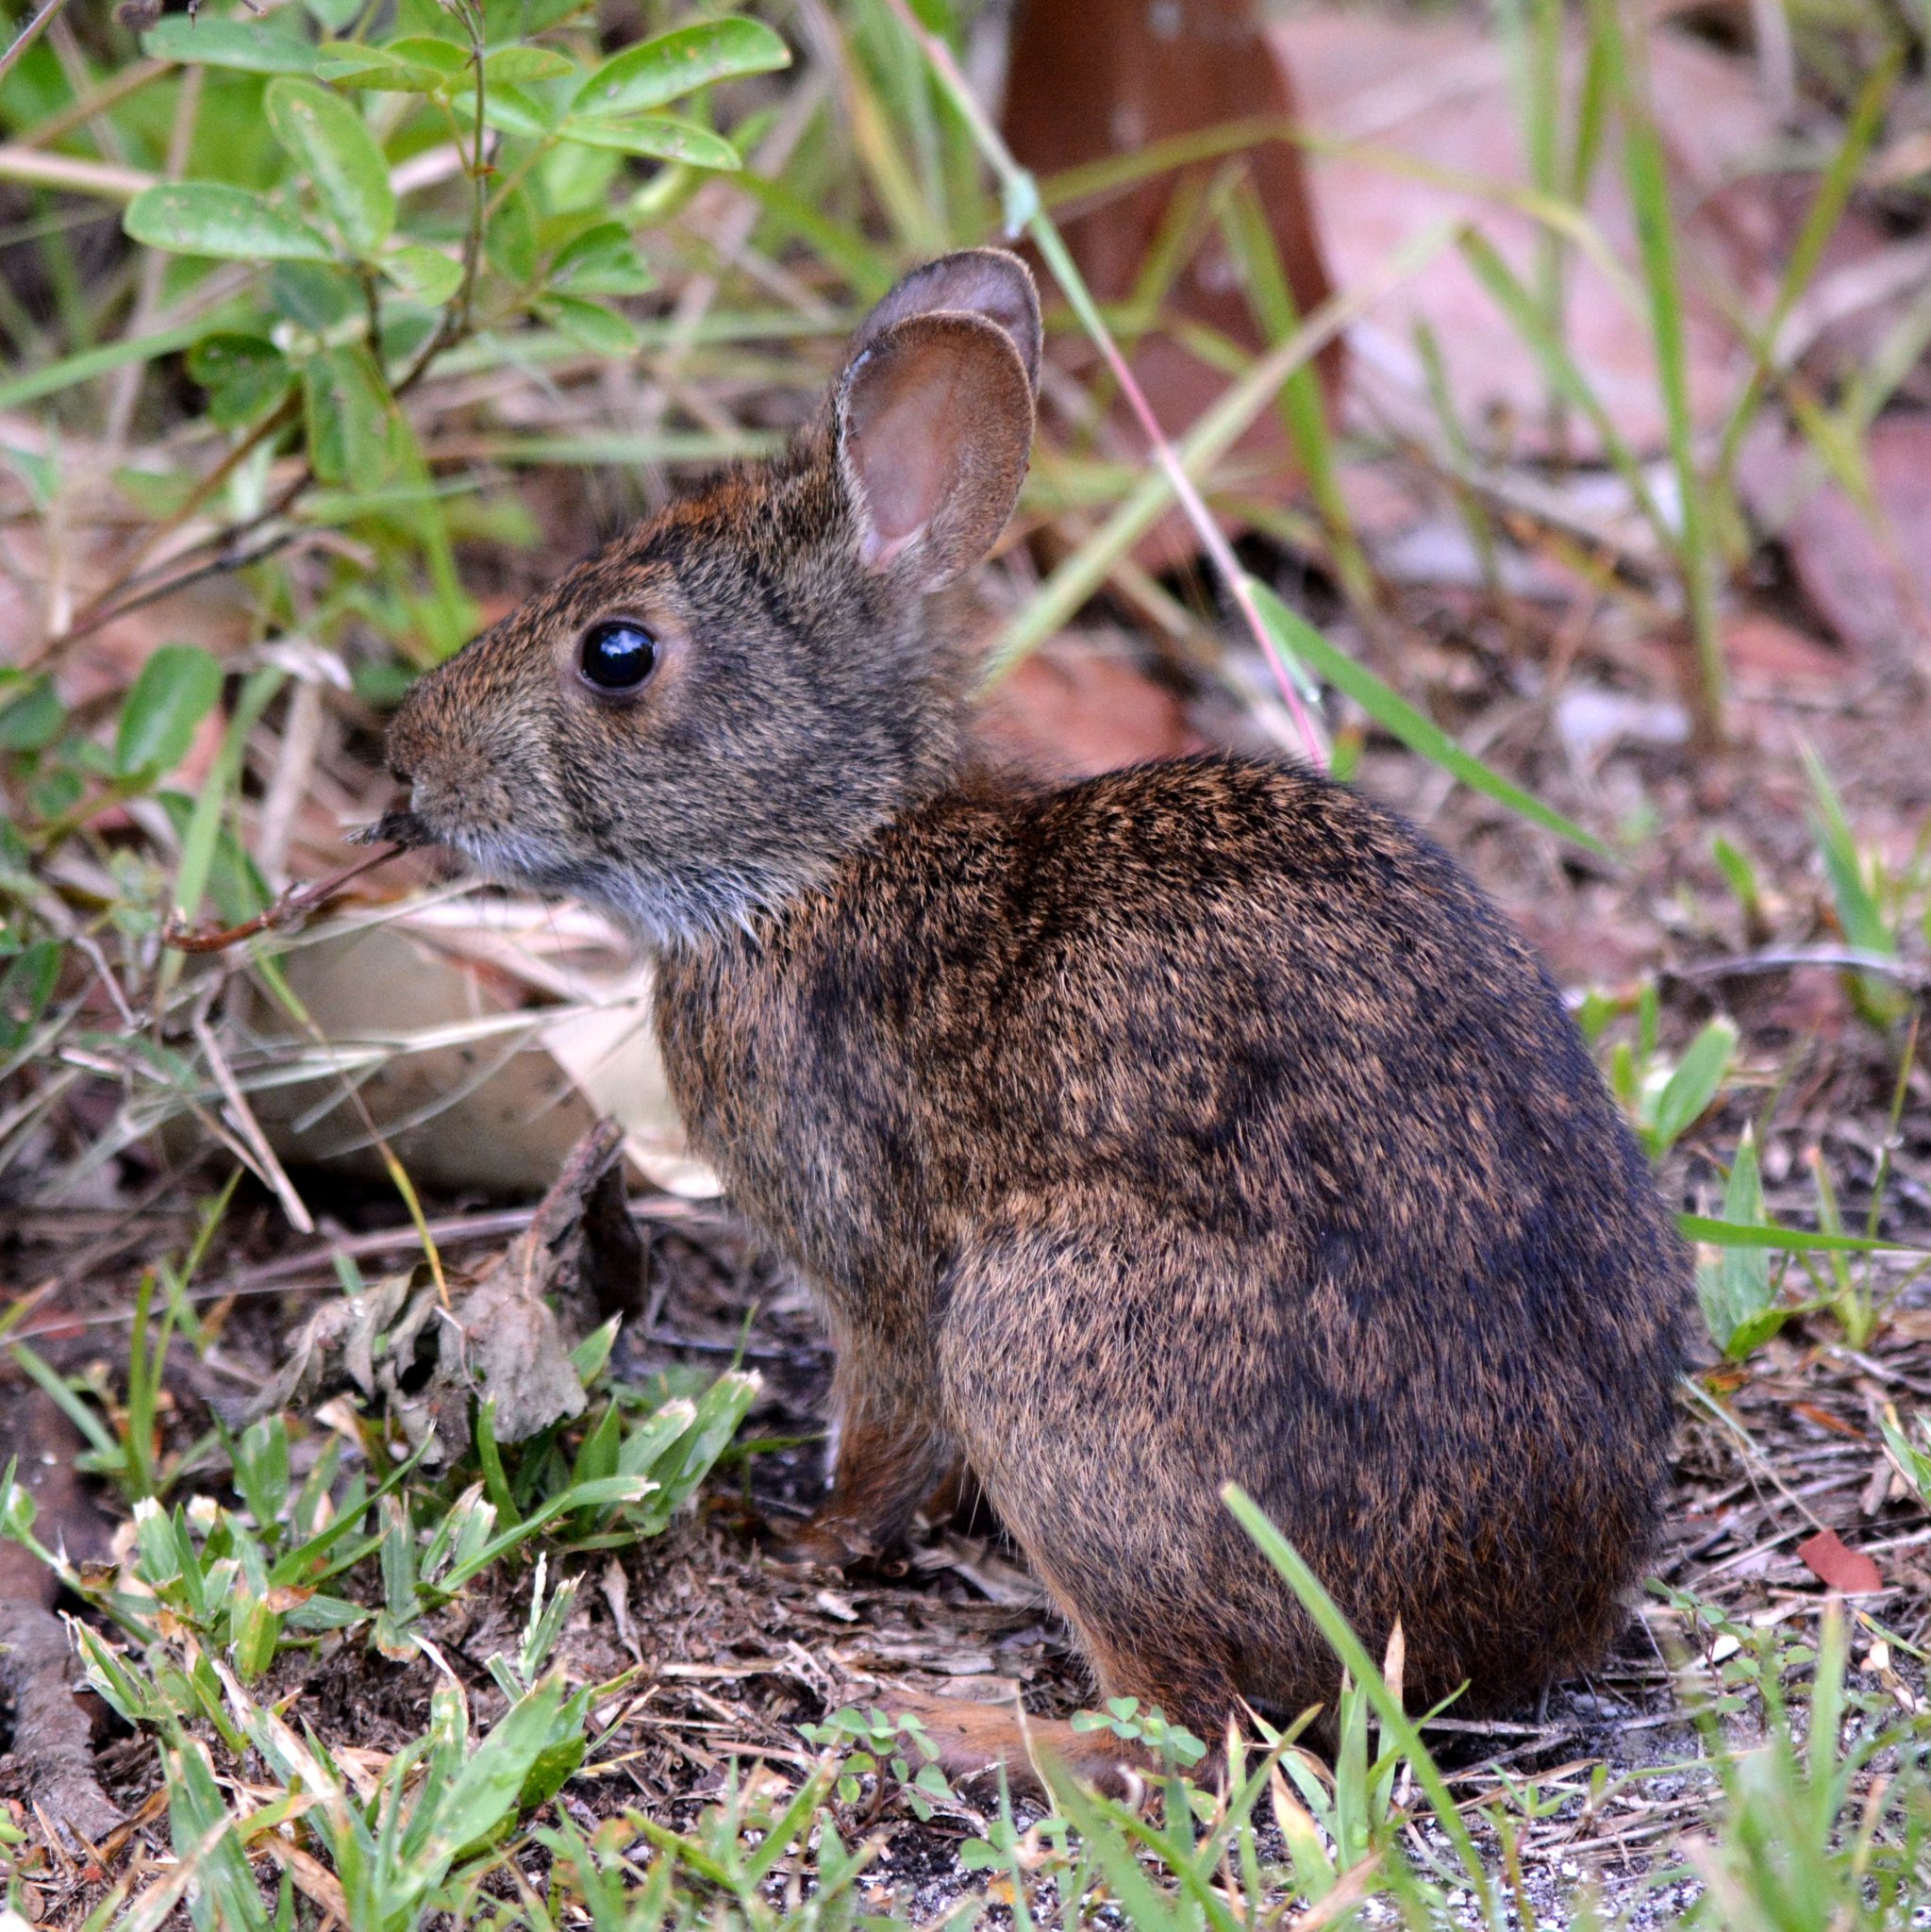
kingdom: Animalia
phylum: Chordata
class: Mammalia
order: Lagomorpha
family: Leporidae
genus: Sylvilagus
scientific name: Sylvilagus palustris
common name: Marsh rabbit
